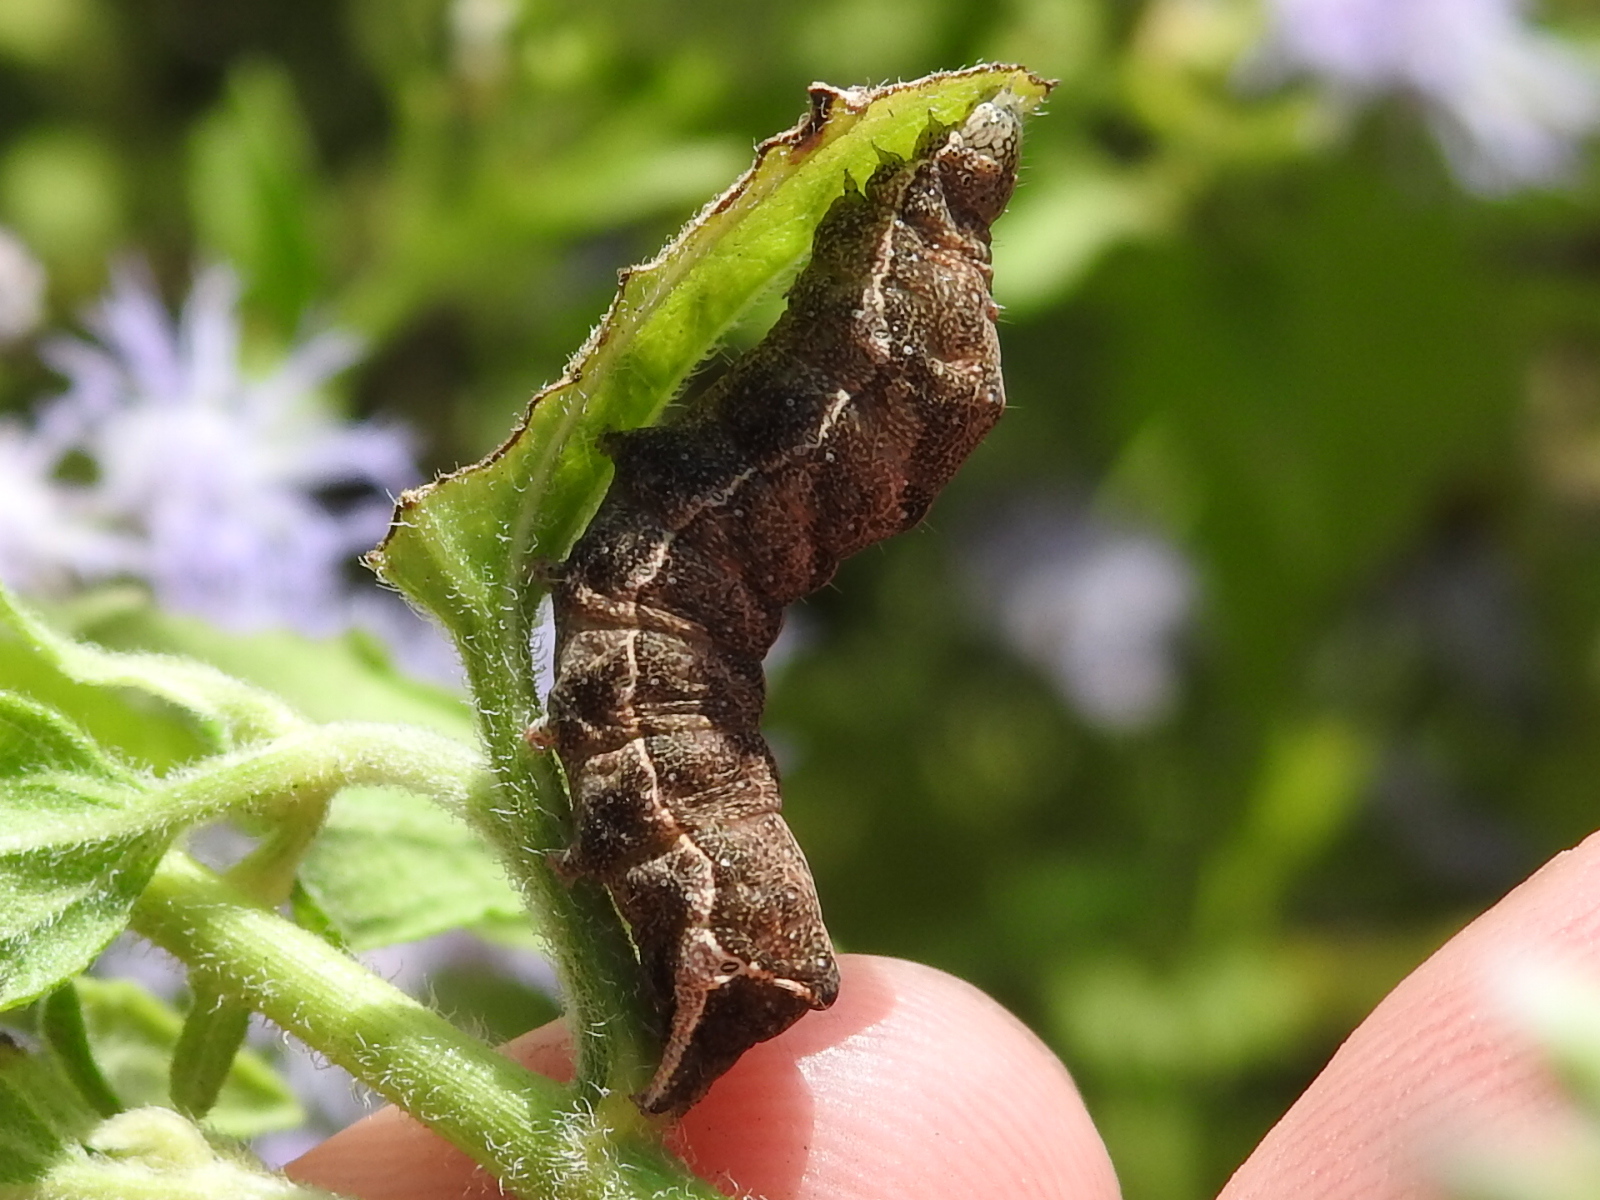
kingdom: Animalia
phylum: Arthropoda
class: Insecta
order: Lepidoptera
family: Noctuidae
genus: Condica
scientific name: Condica albigera
